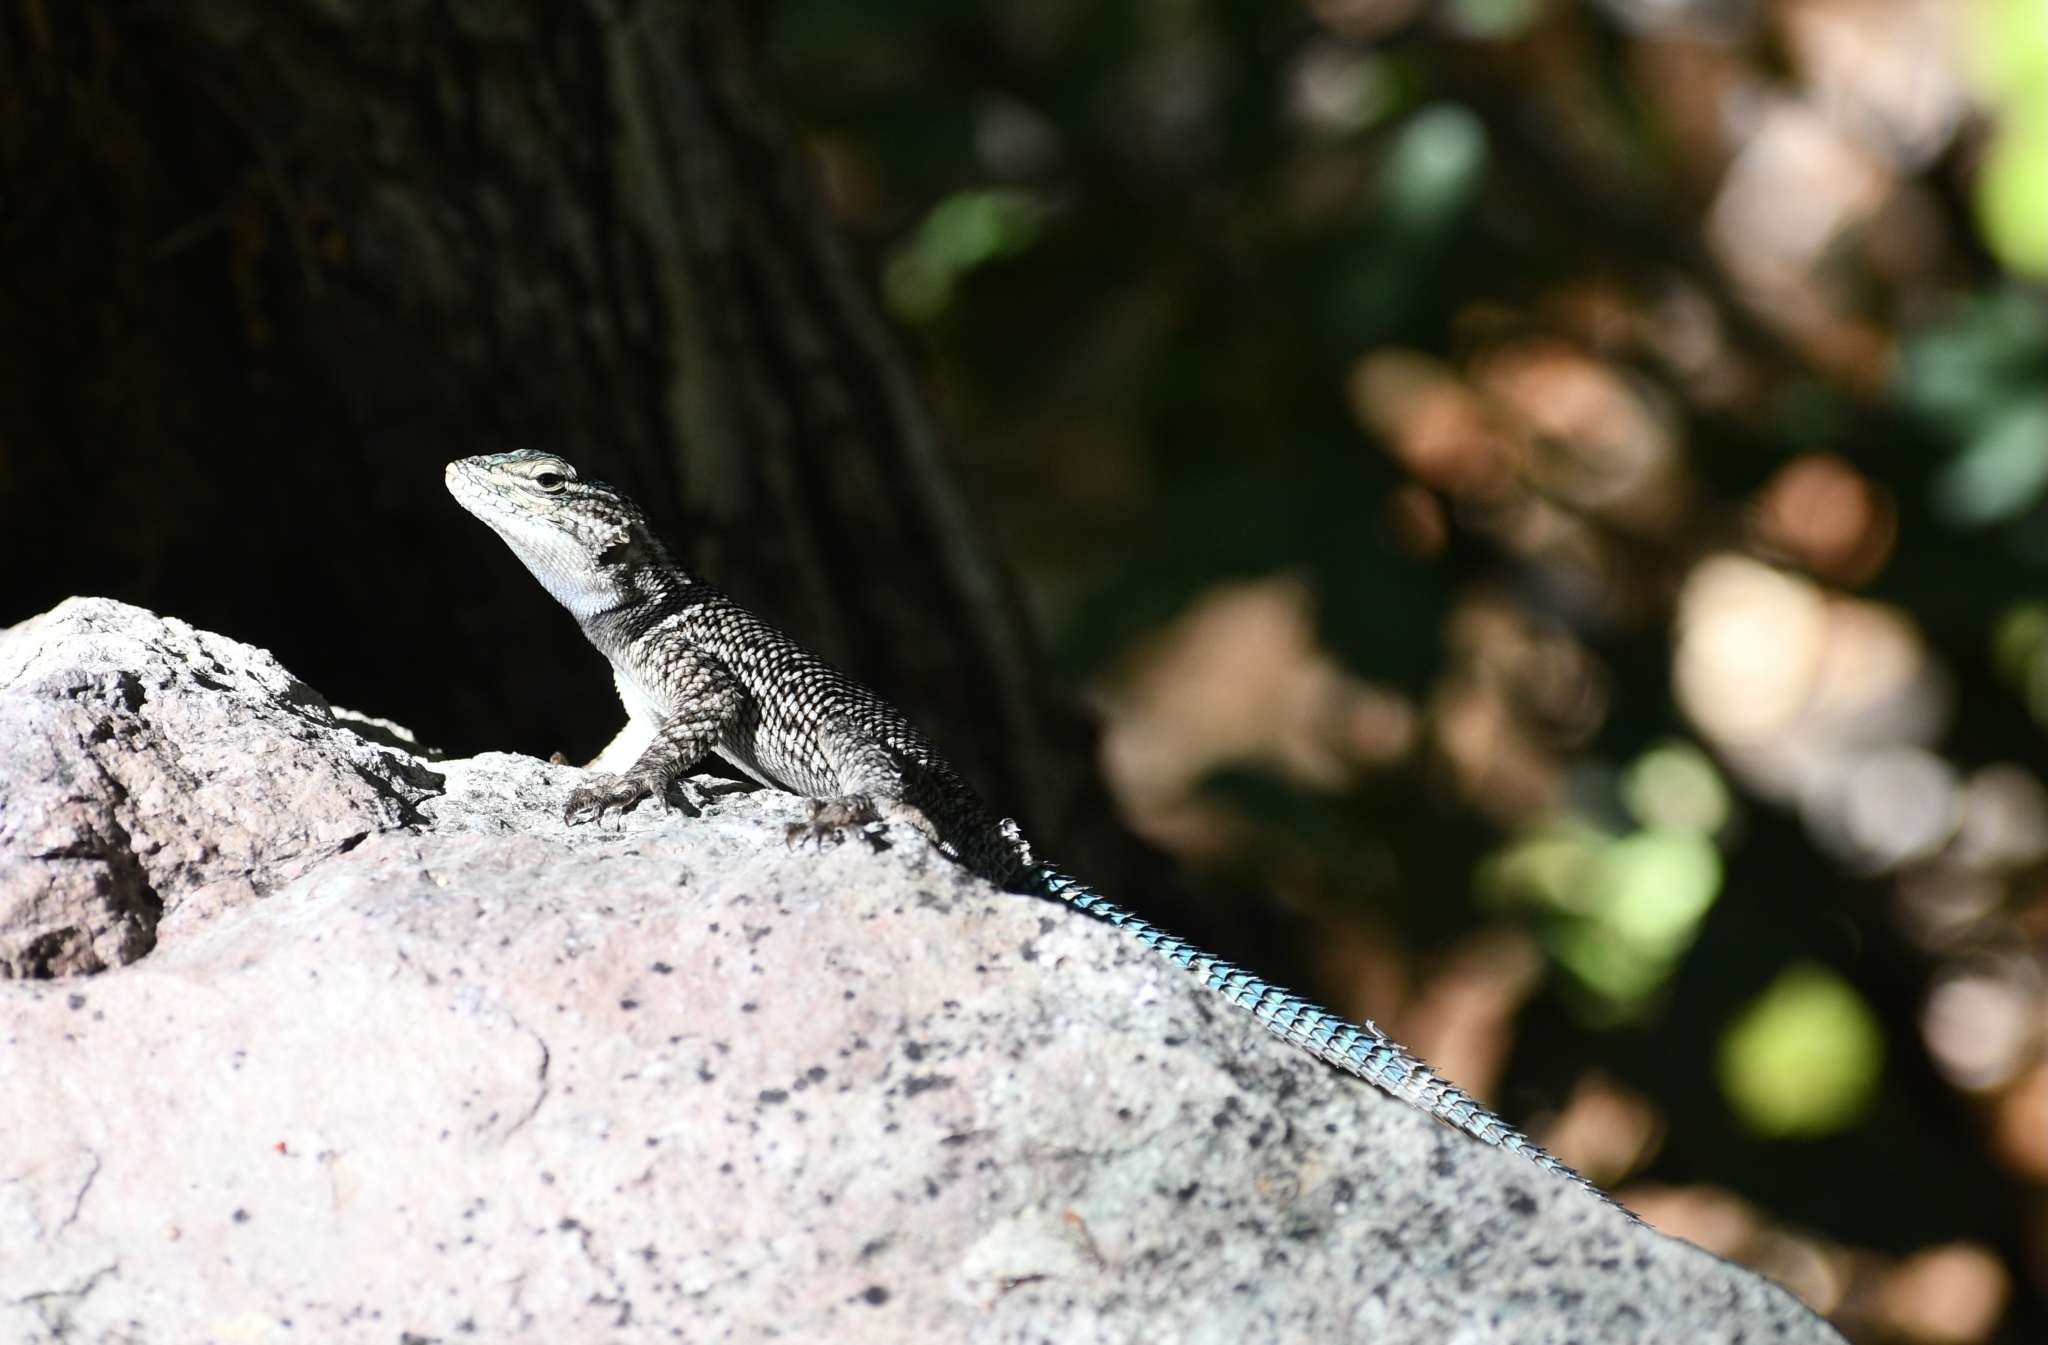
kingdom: Animalia
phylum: Chordata
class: Squamata
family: Phrynosomatidae
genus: Sceloporus
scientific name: Sceloporus jarrovii
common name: Yarrow's spiny lizard
